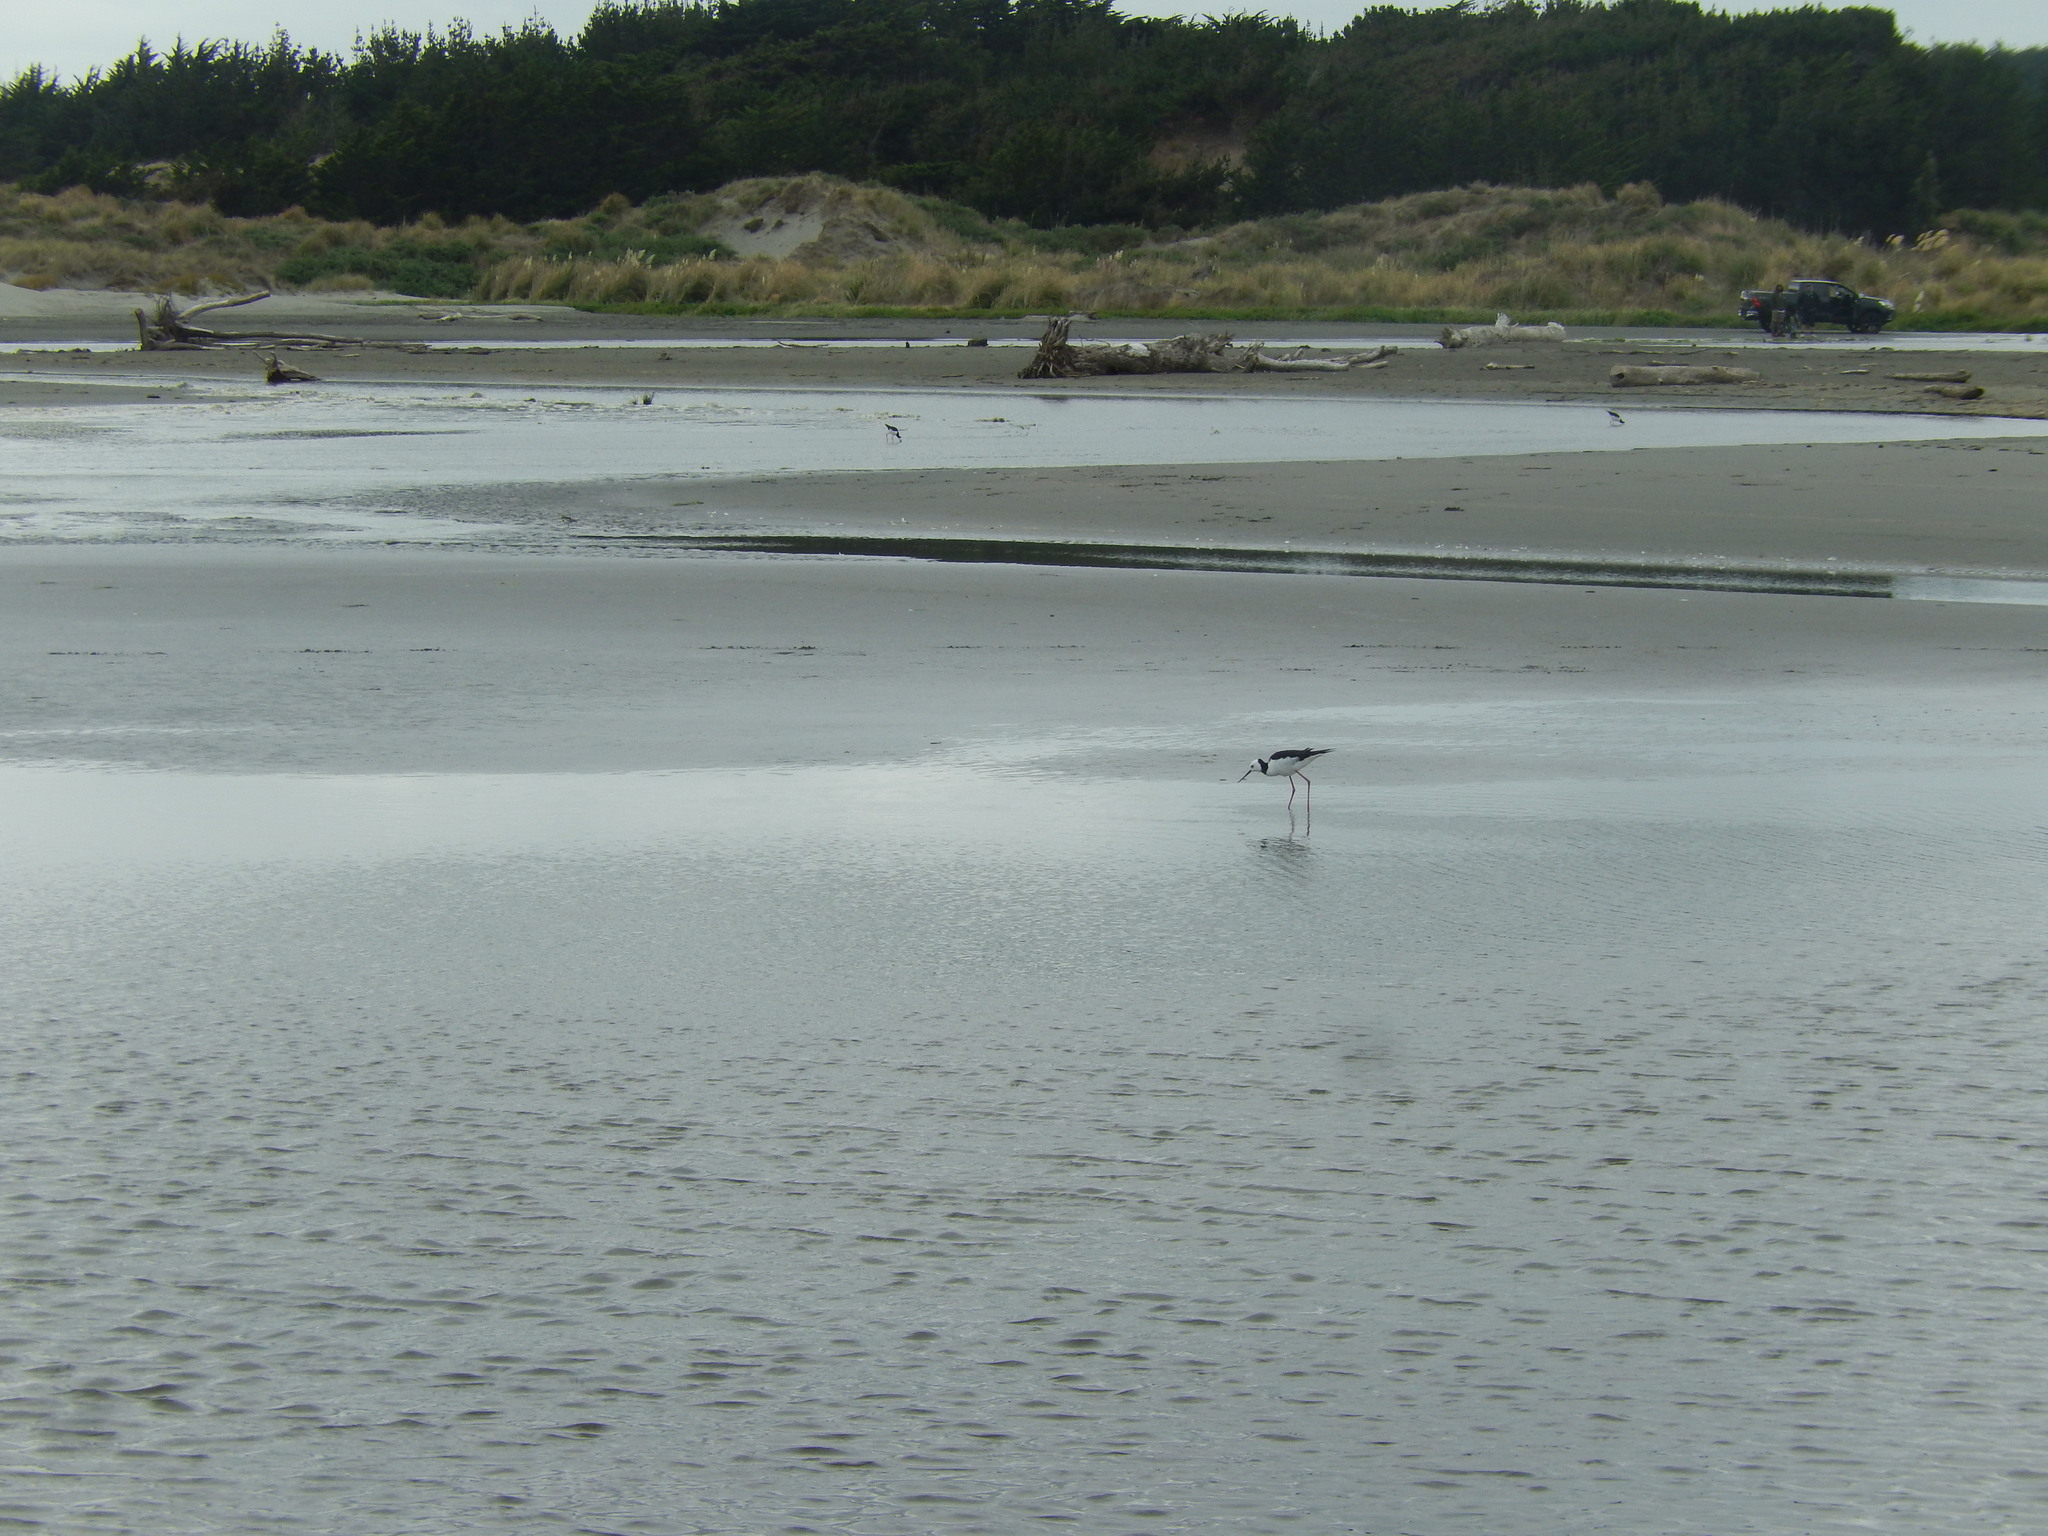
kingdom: Animalia
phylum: Chordata
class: Aves
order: Charadriiformes
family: Recurvirostridae
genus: Himantopus
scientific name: Himantopus leucocephalus
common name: White-headed stilt
